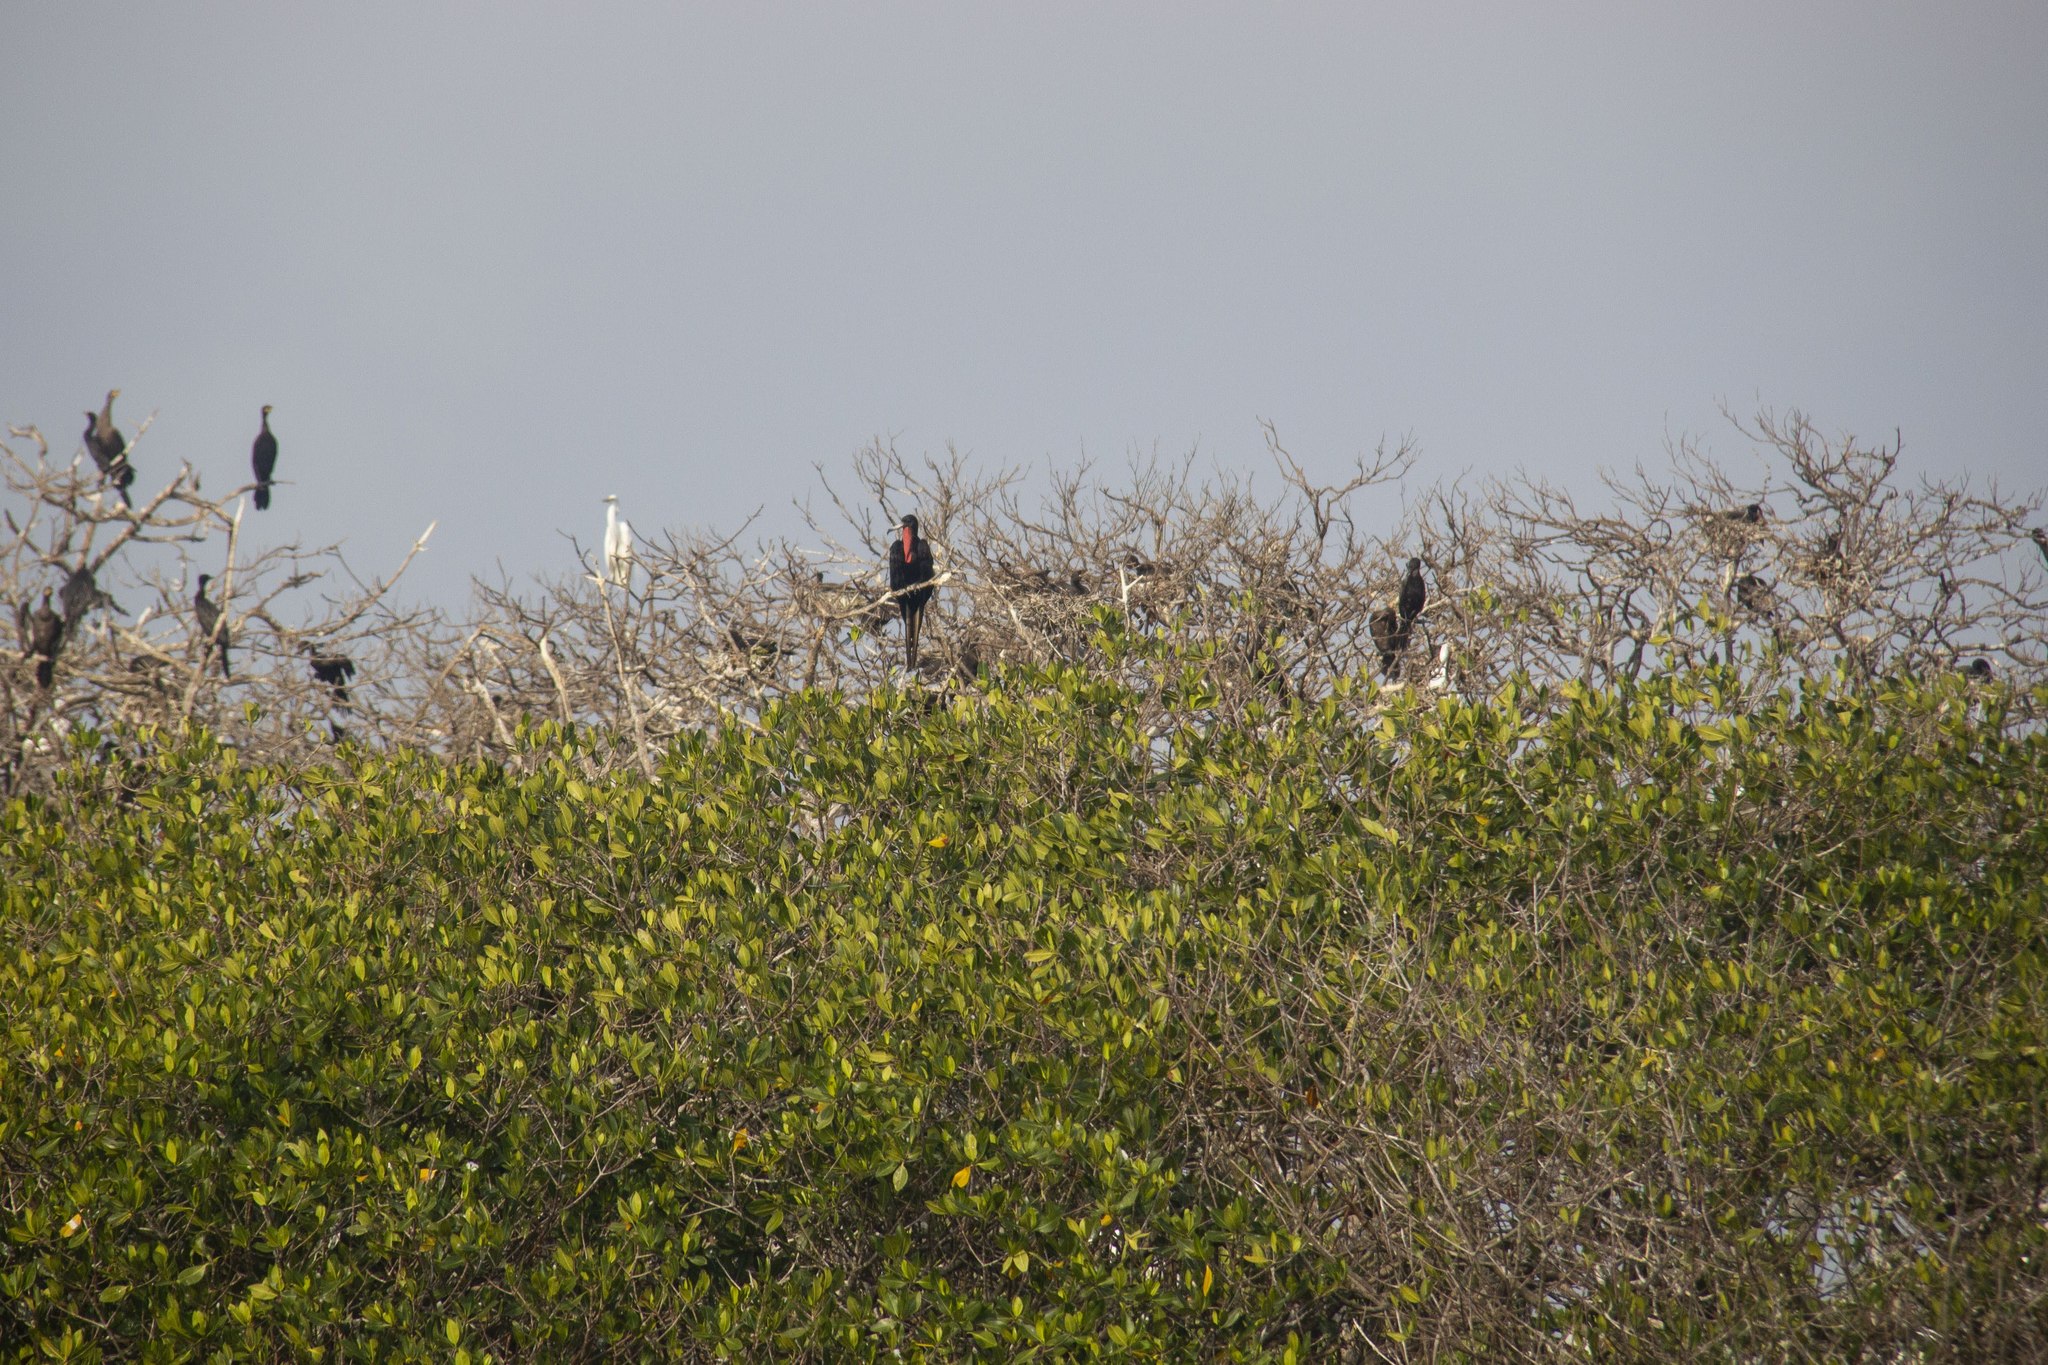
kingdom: Animalia
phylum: Chordata
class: Aves
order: Suliformes
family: Fregatidae
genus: Fregata
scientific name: Fregata magnificens
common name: Magnificent frigatebird
